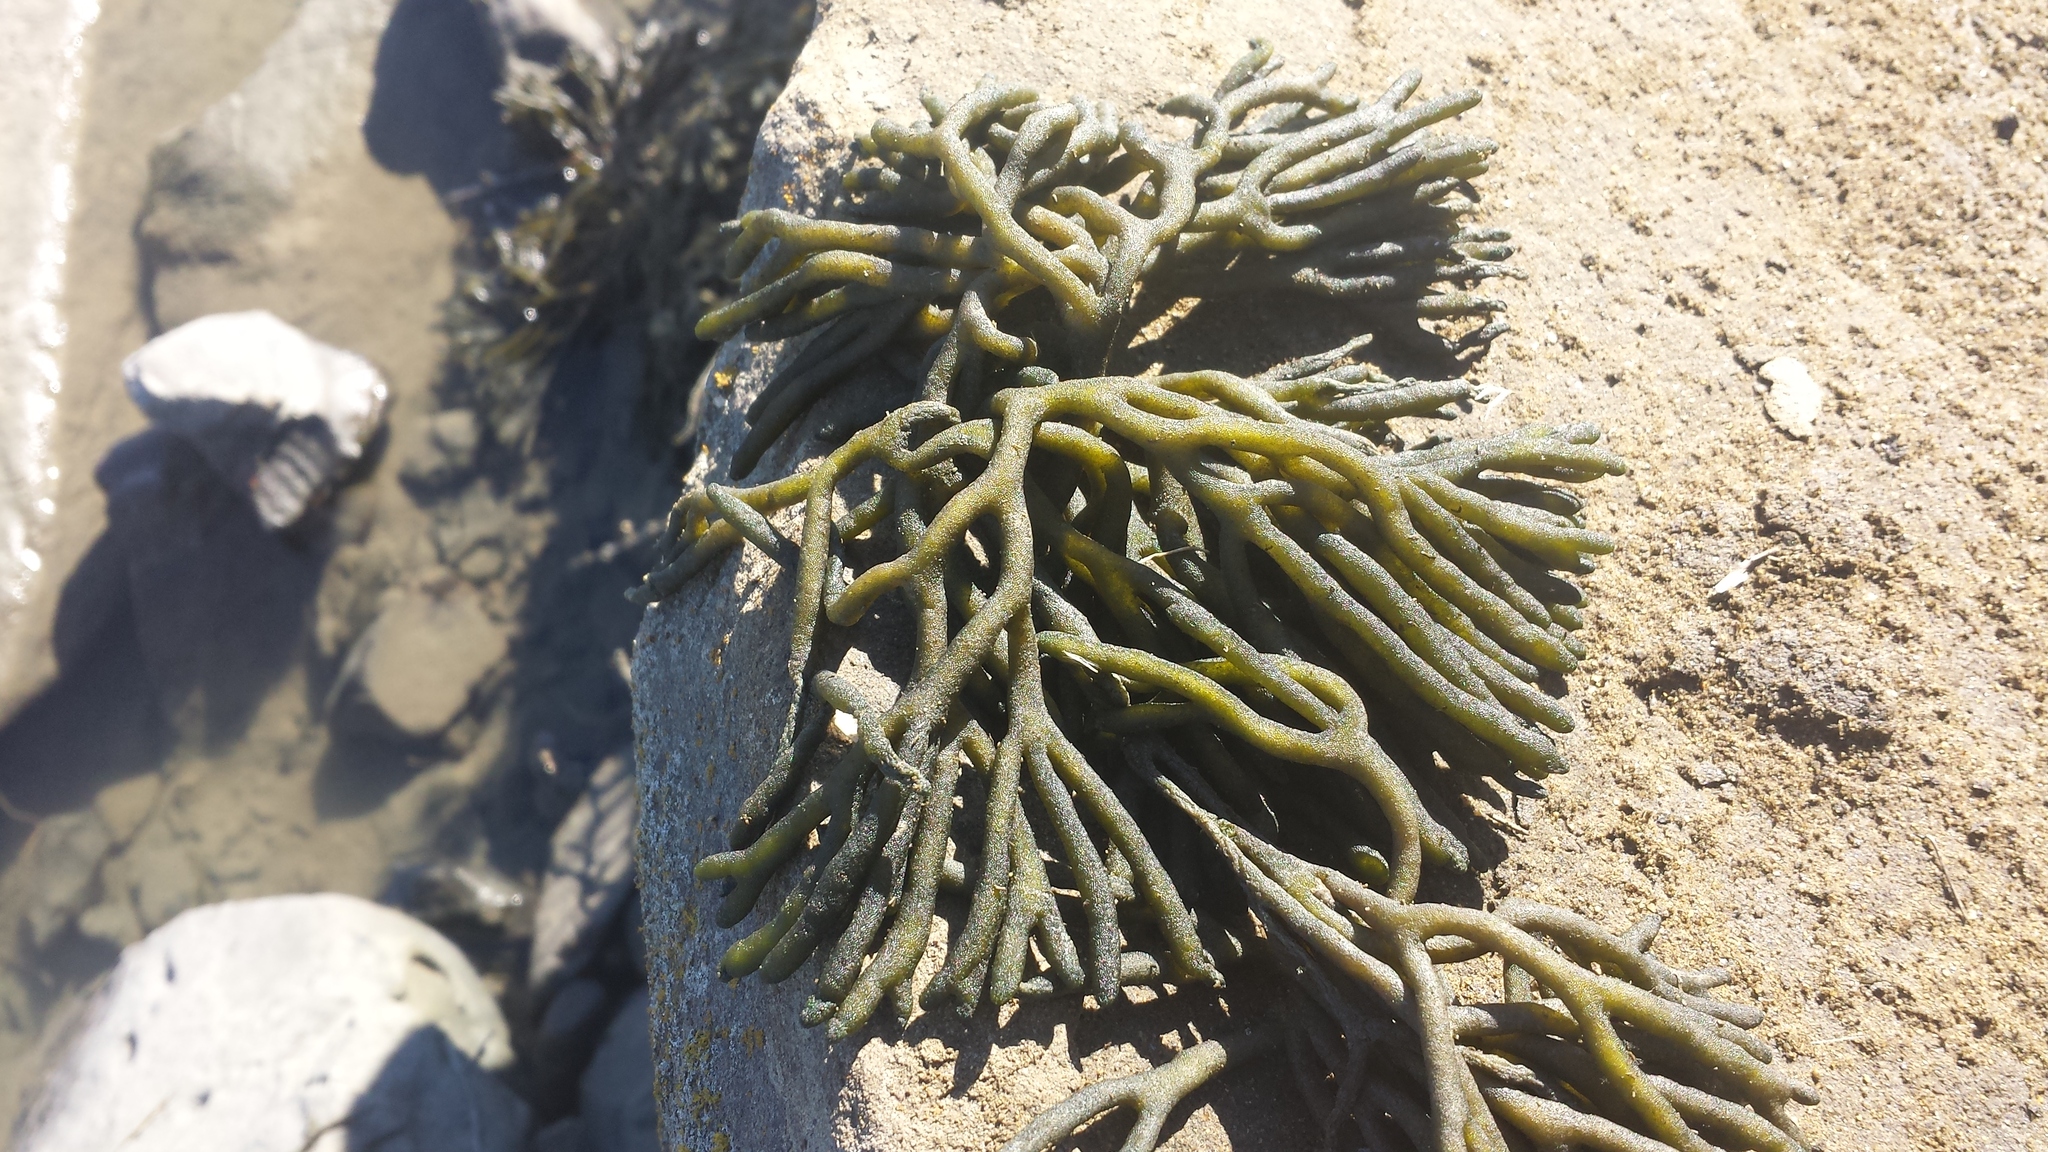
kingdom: Plantae
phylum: Chlorophyta
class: Ulvophyceae
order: Bryopsidales
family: Codiaceae
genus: Codium
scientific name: Codium fragile
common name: Dead man's fingers
